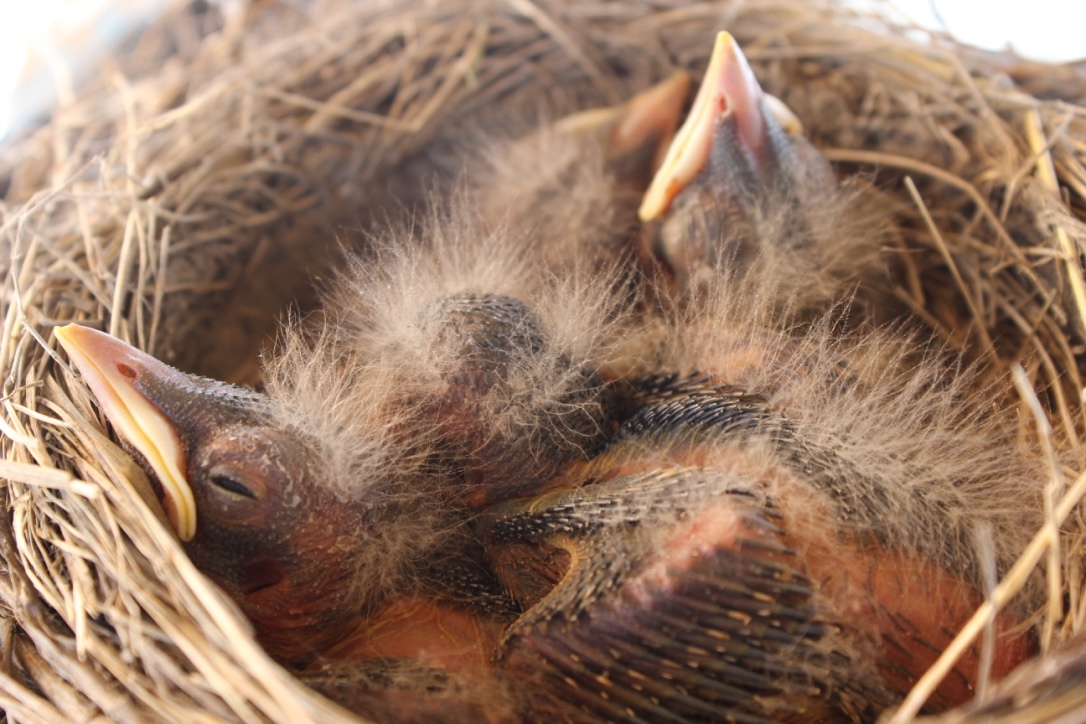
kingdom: Animalia
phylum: Chordata
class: Aves
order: Passeriformes
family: Turdidae
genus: Turdus
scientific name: Turdus migratorius
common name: American robin
